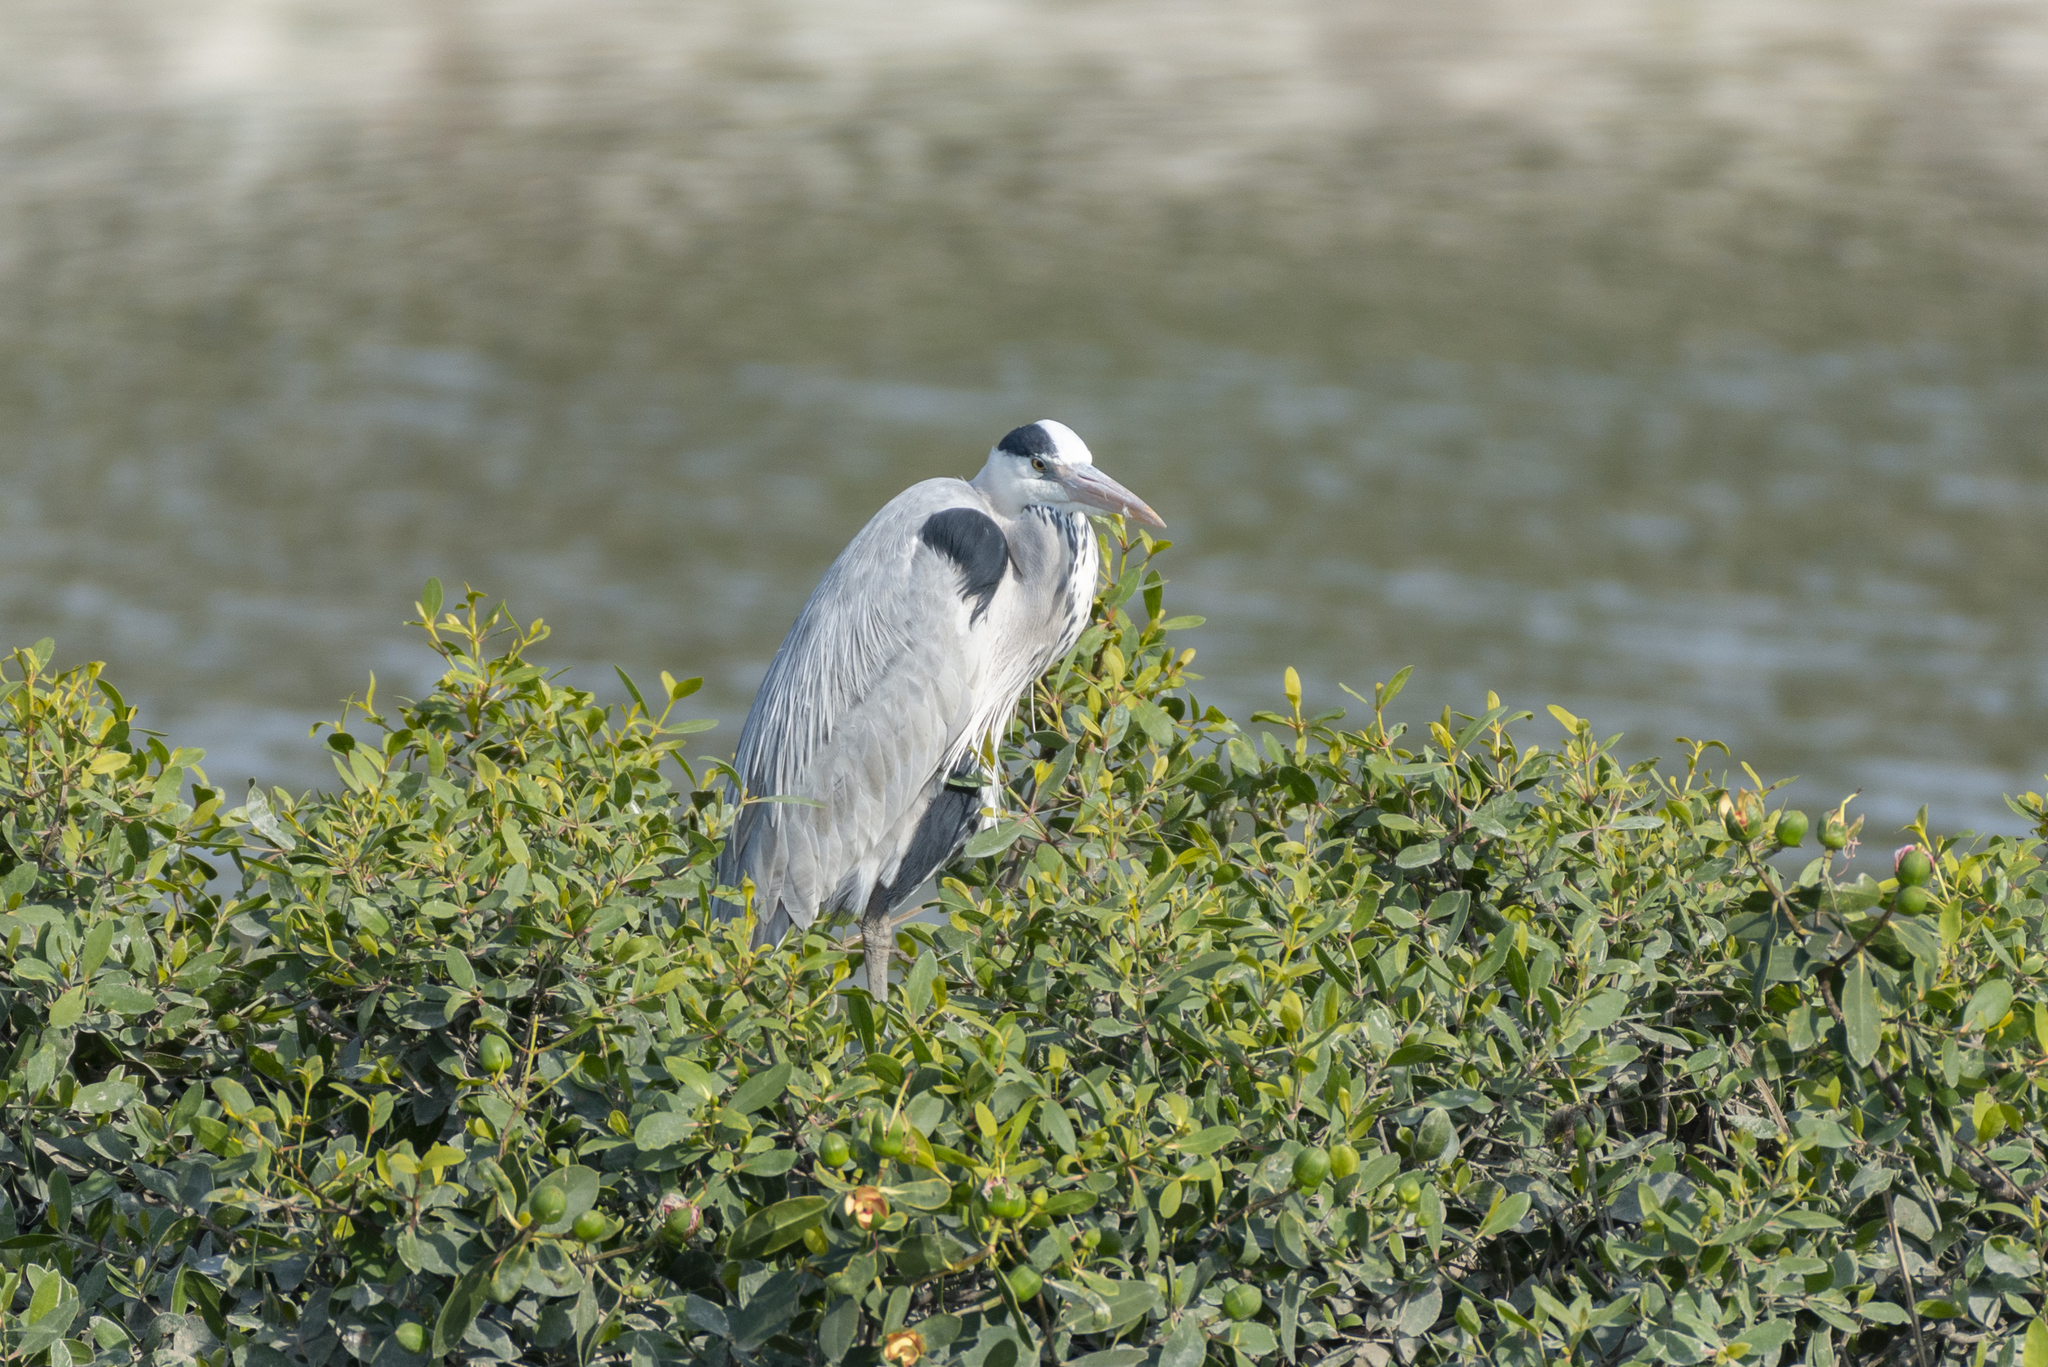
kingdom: Animalia
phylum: Chordata
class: Aves
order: Pelecaniformes
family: Ardeidae
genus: Ardea
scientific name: Ardea cinerea
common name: Grey heron
